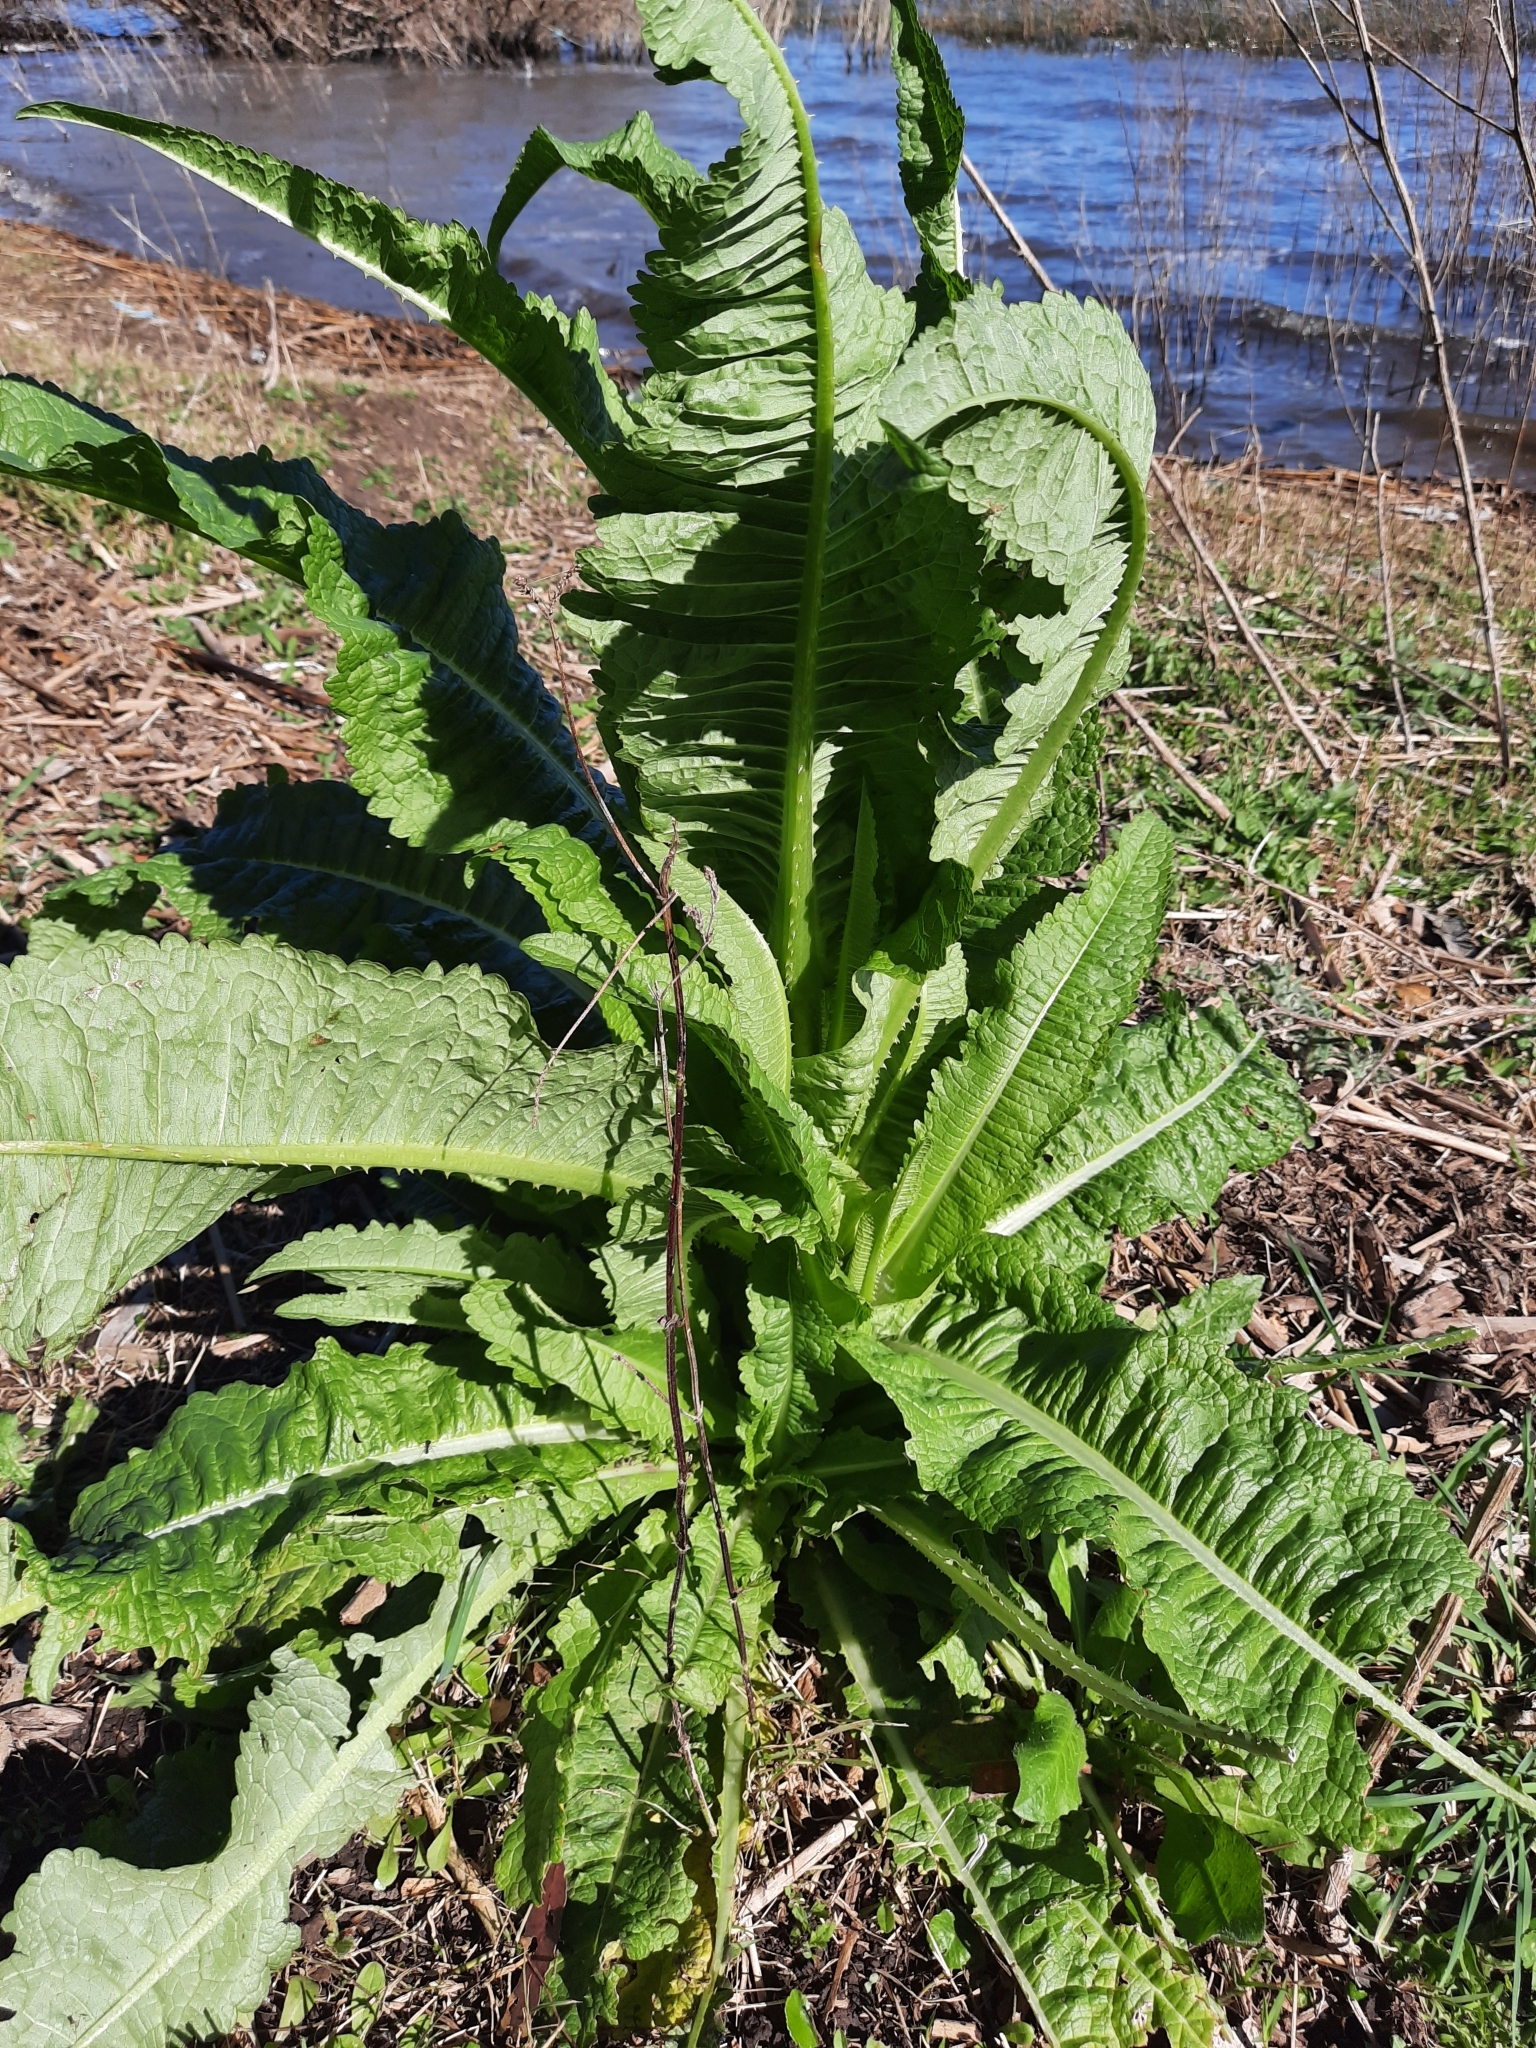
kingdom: Plantae
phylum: Tracheophyta
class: Magnoliopsida
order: Dipsacales
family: Caprifoliaceae
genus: Dipsacus
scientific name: Dipsacus fullonum
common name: Teasel
